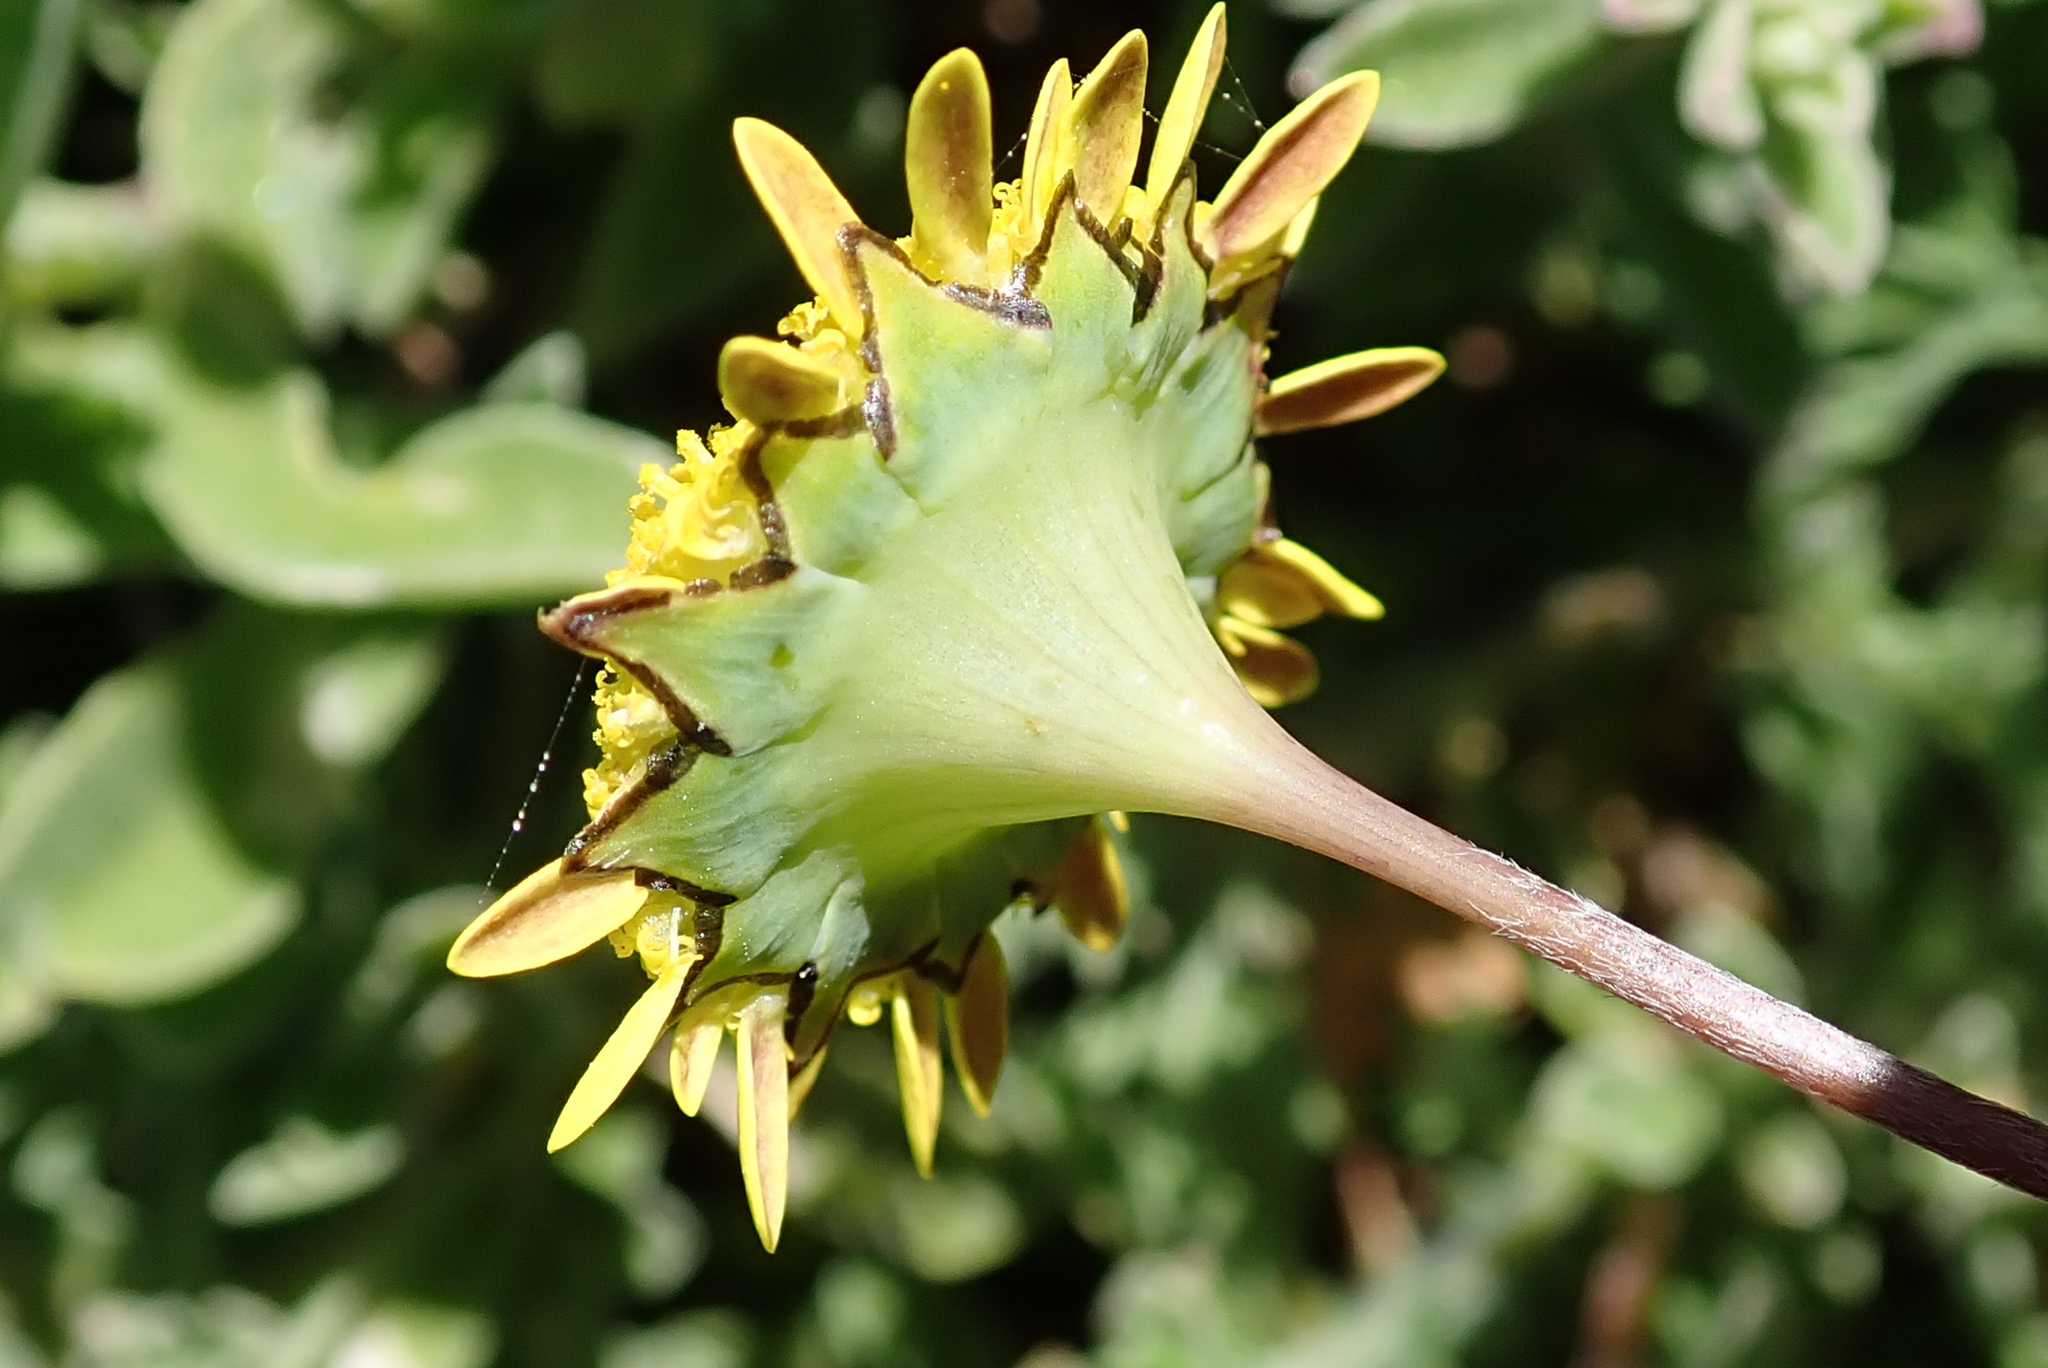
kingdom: Plantae
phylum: Tracheophyta
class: Magnoliopsida
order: Asterales
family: Asteraceae
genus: Cotula
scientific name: Cotula pruinosa
